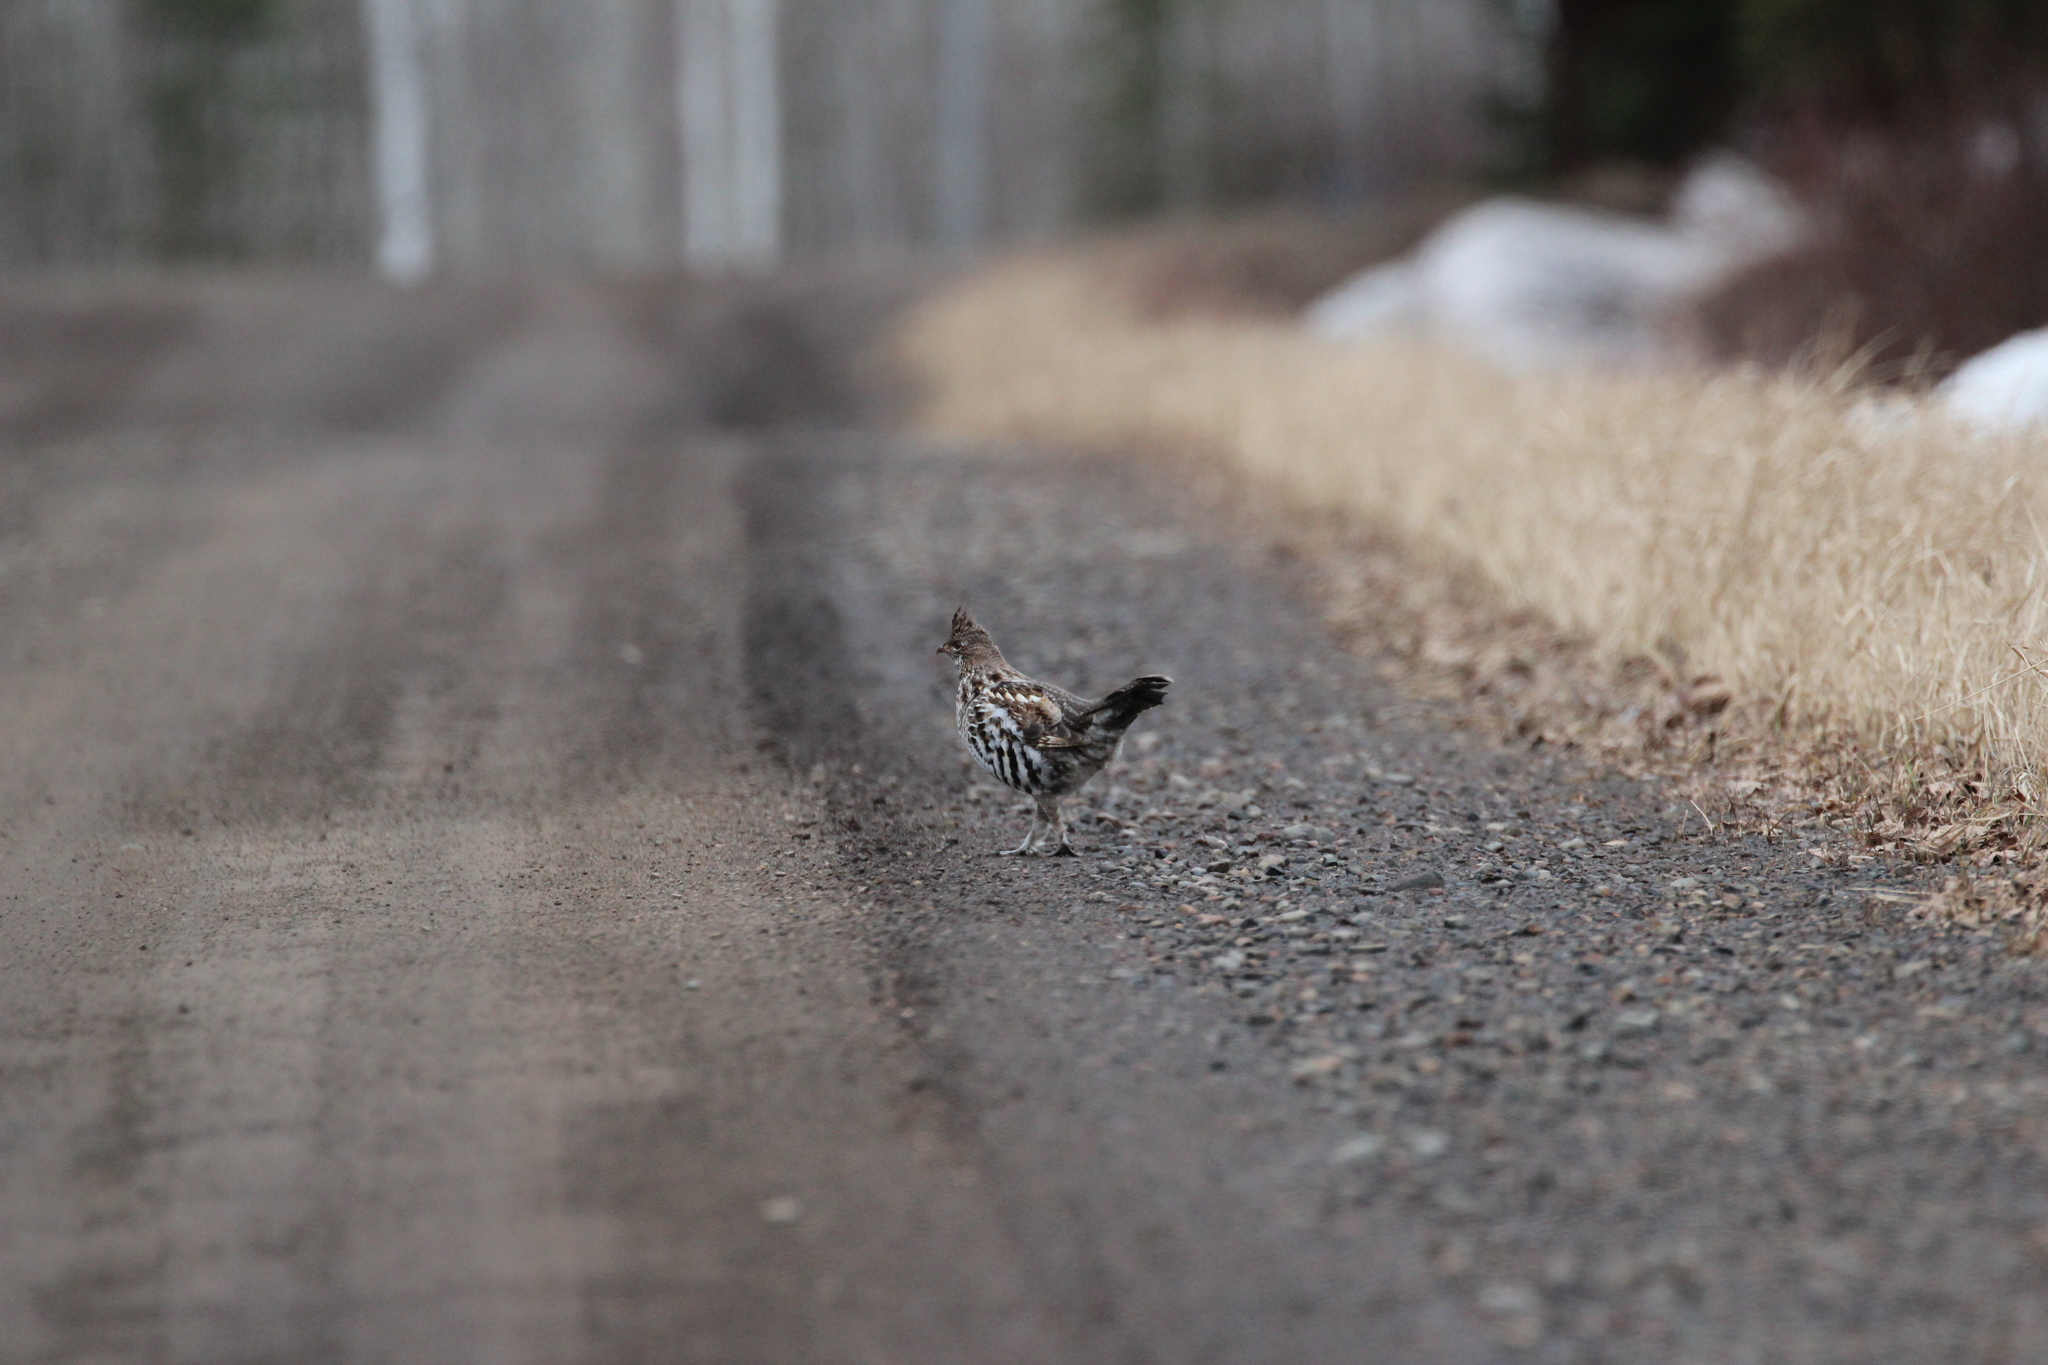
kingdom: Animalia
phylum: Chordata
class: Aves
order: Galliformes
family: Phasianidae
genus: Bonasa
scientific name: Bonasa umbellus
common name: Ruffed grouse
